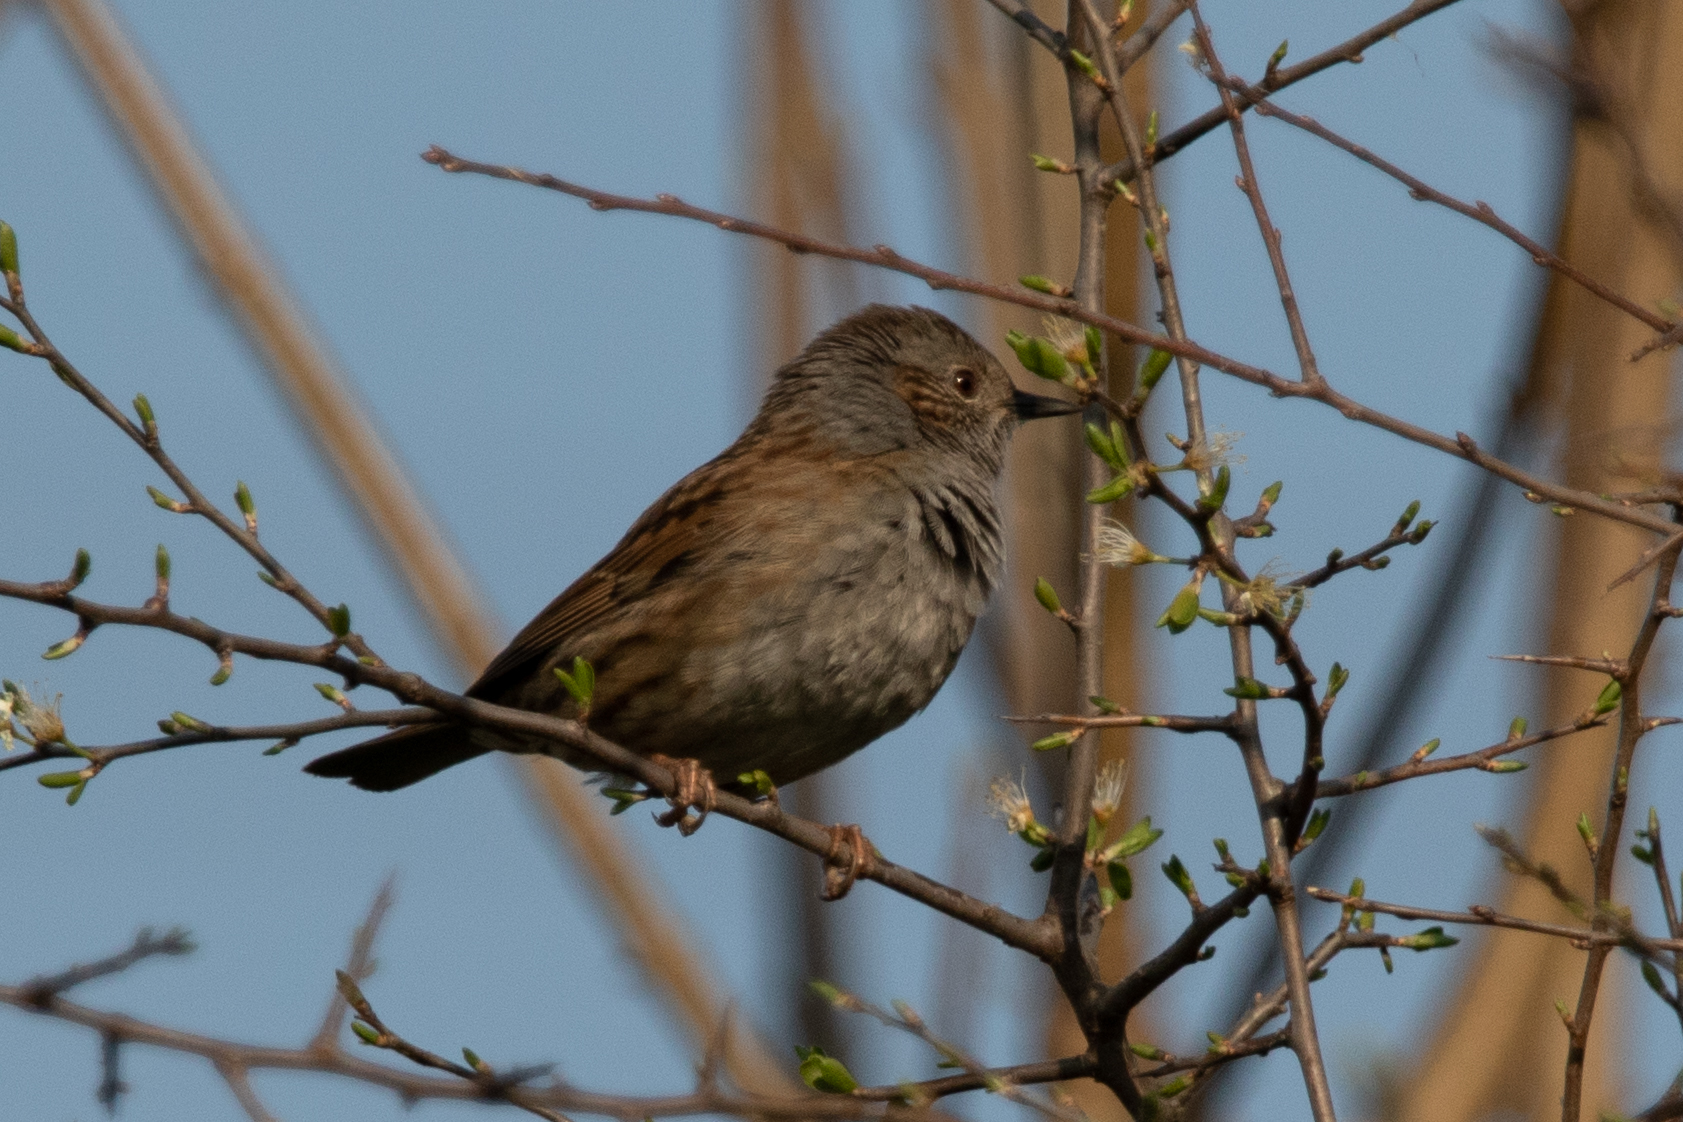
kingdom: Animalia
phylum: Chordata
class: Aves
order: Passeriformes
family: Prunellidae
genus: Prunella
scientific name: Prunella modularis
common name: Dunnock
